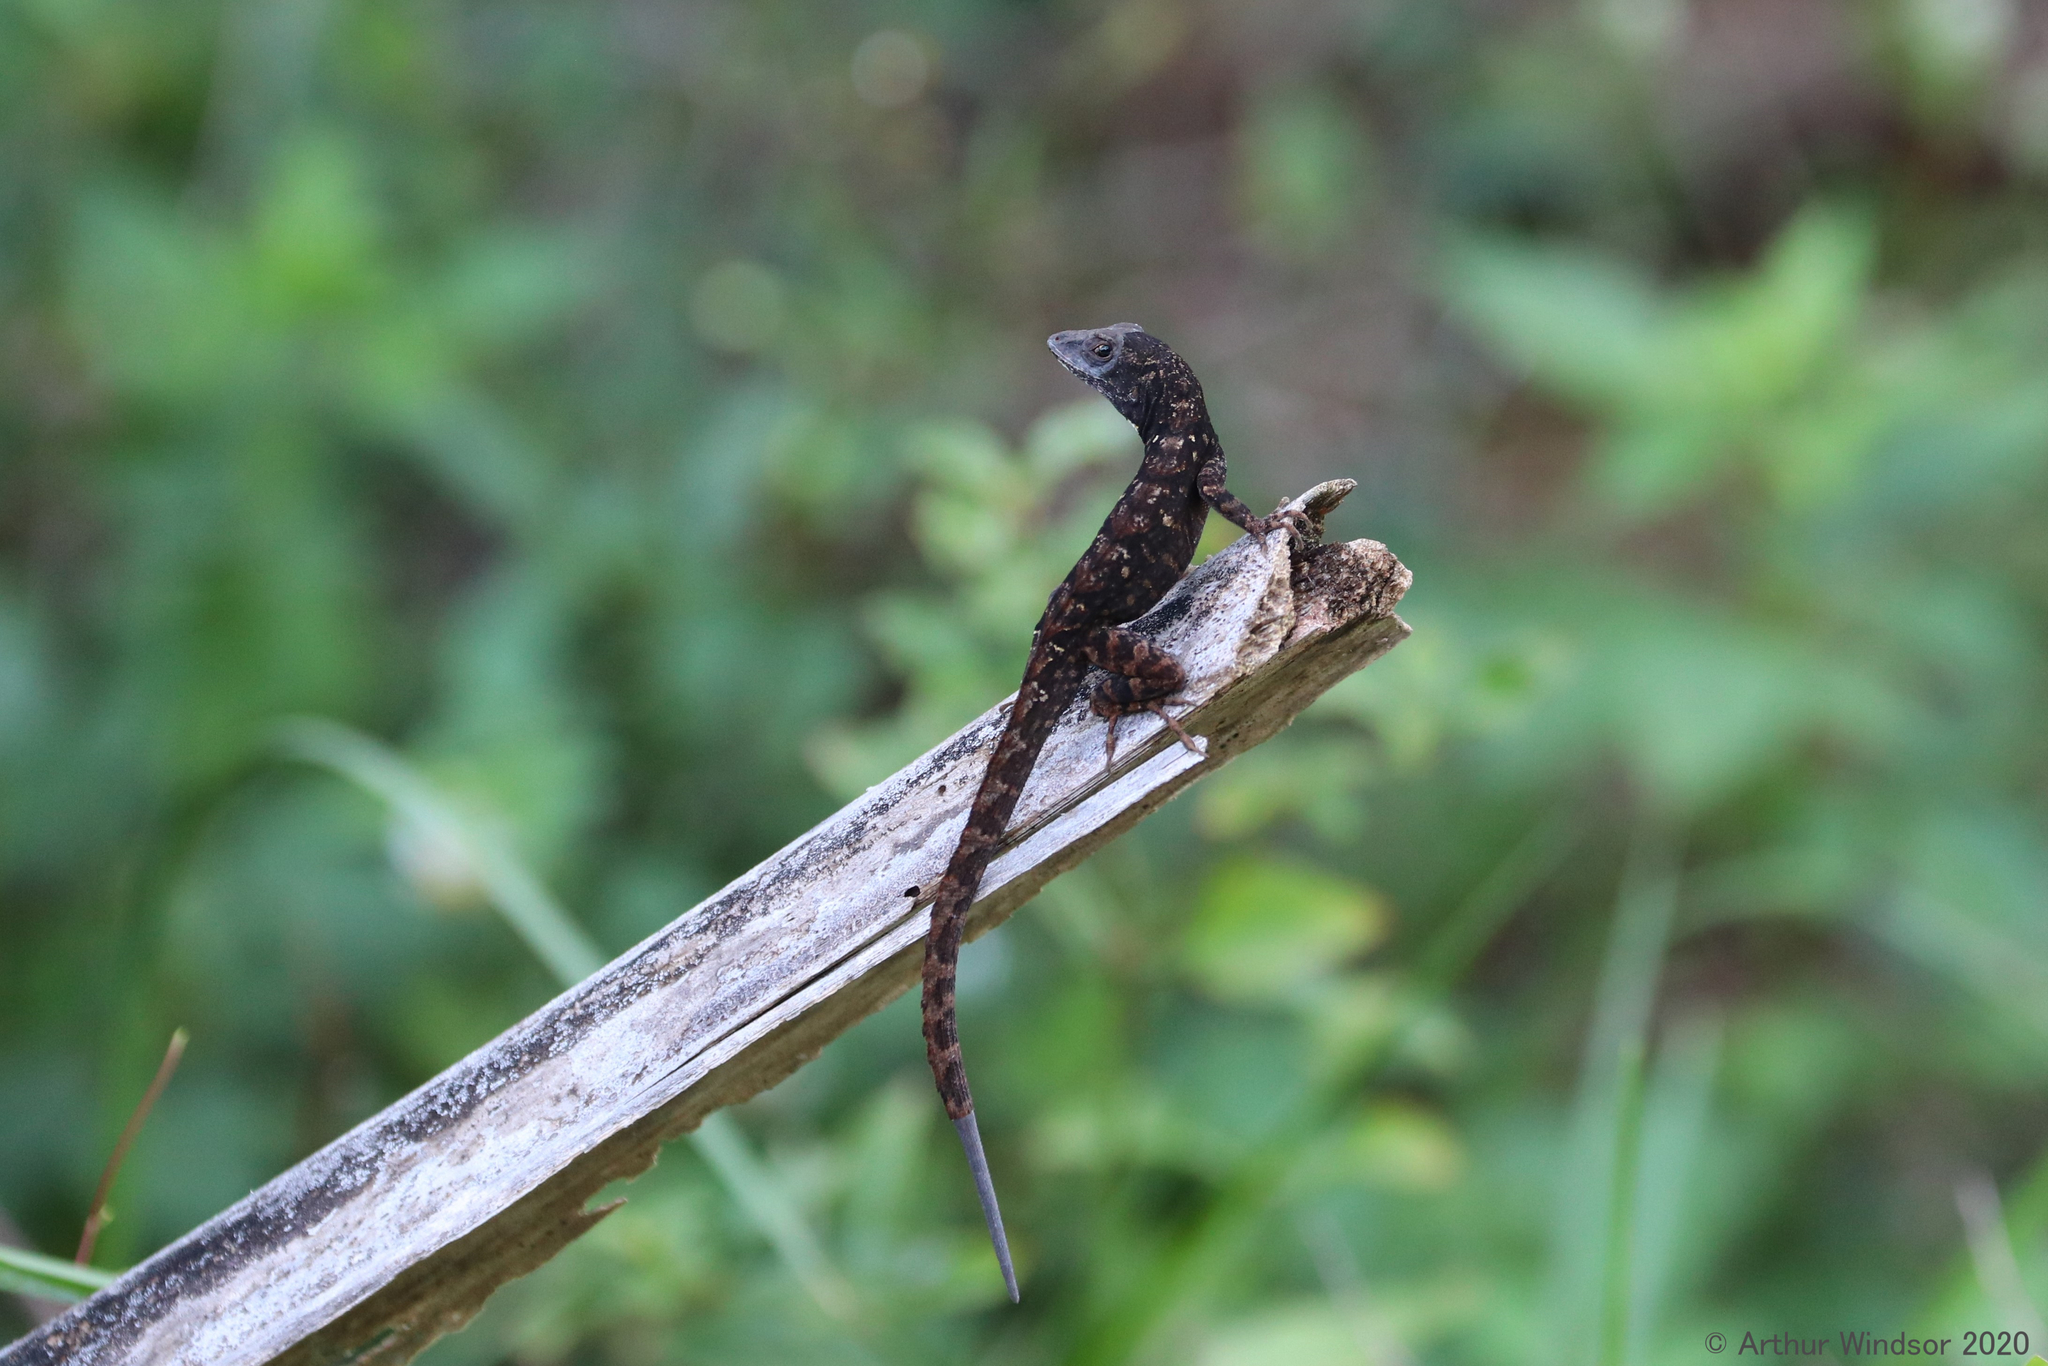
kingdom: Animalia
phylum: Chordata
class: Squamata
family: Dactyloidae
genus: Anolis
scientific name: Anolis sagrei
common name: Brown anole
